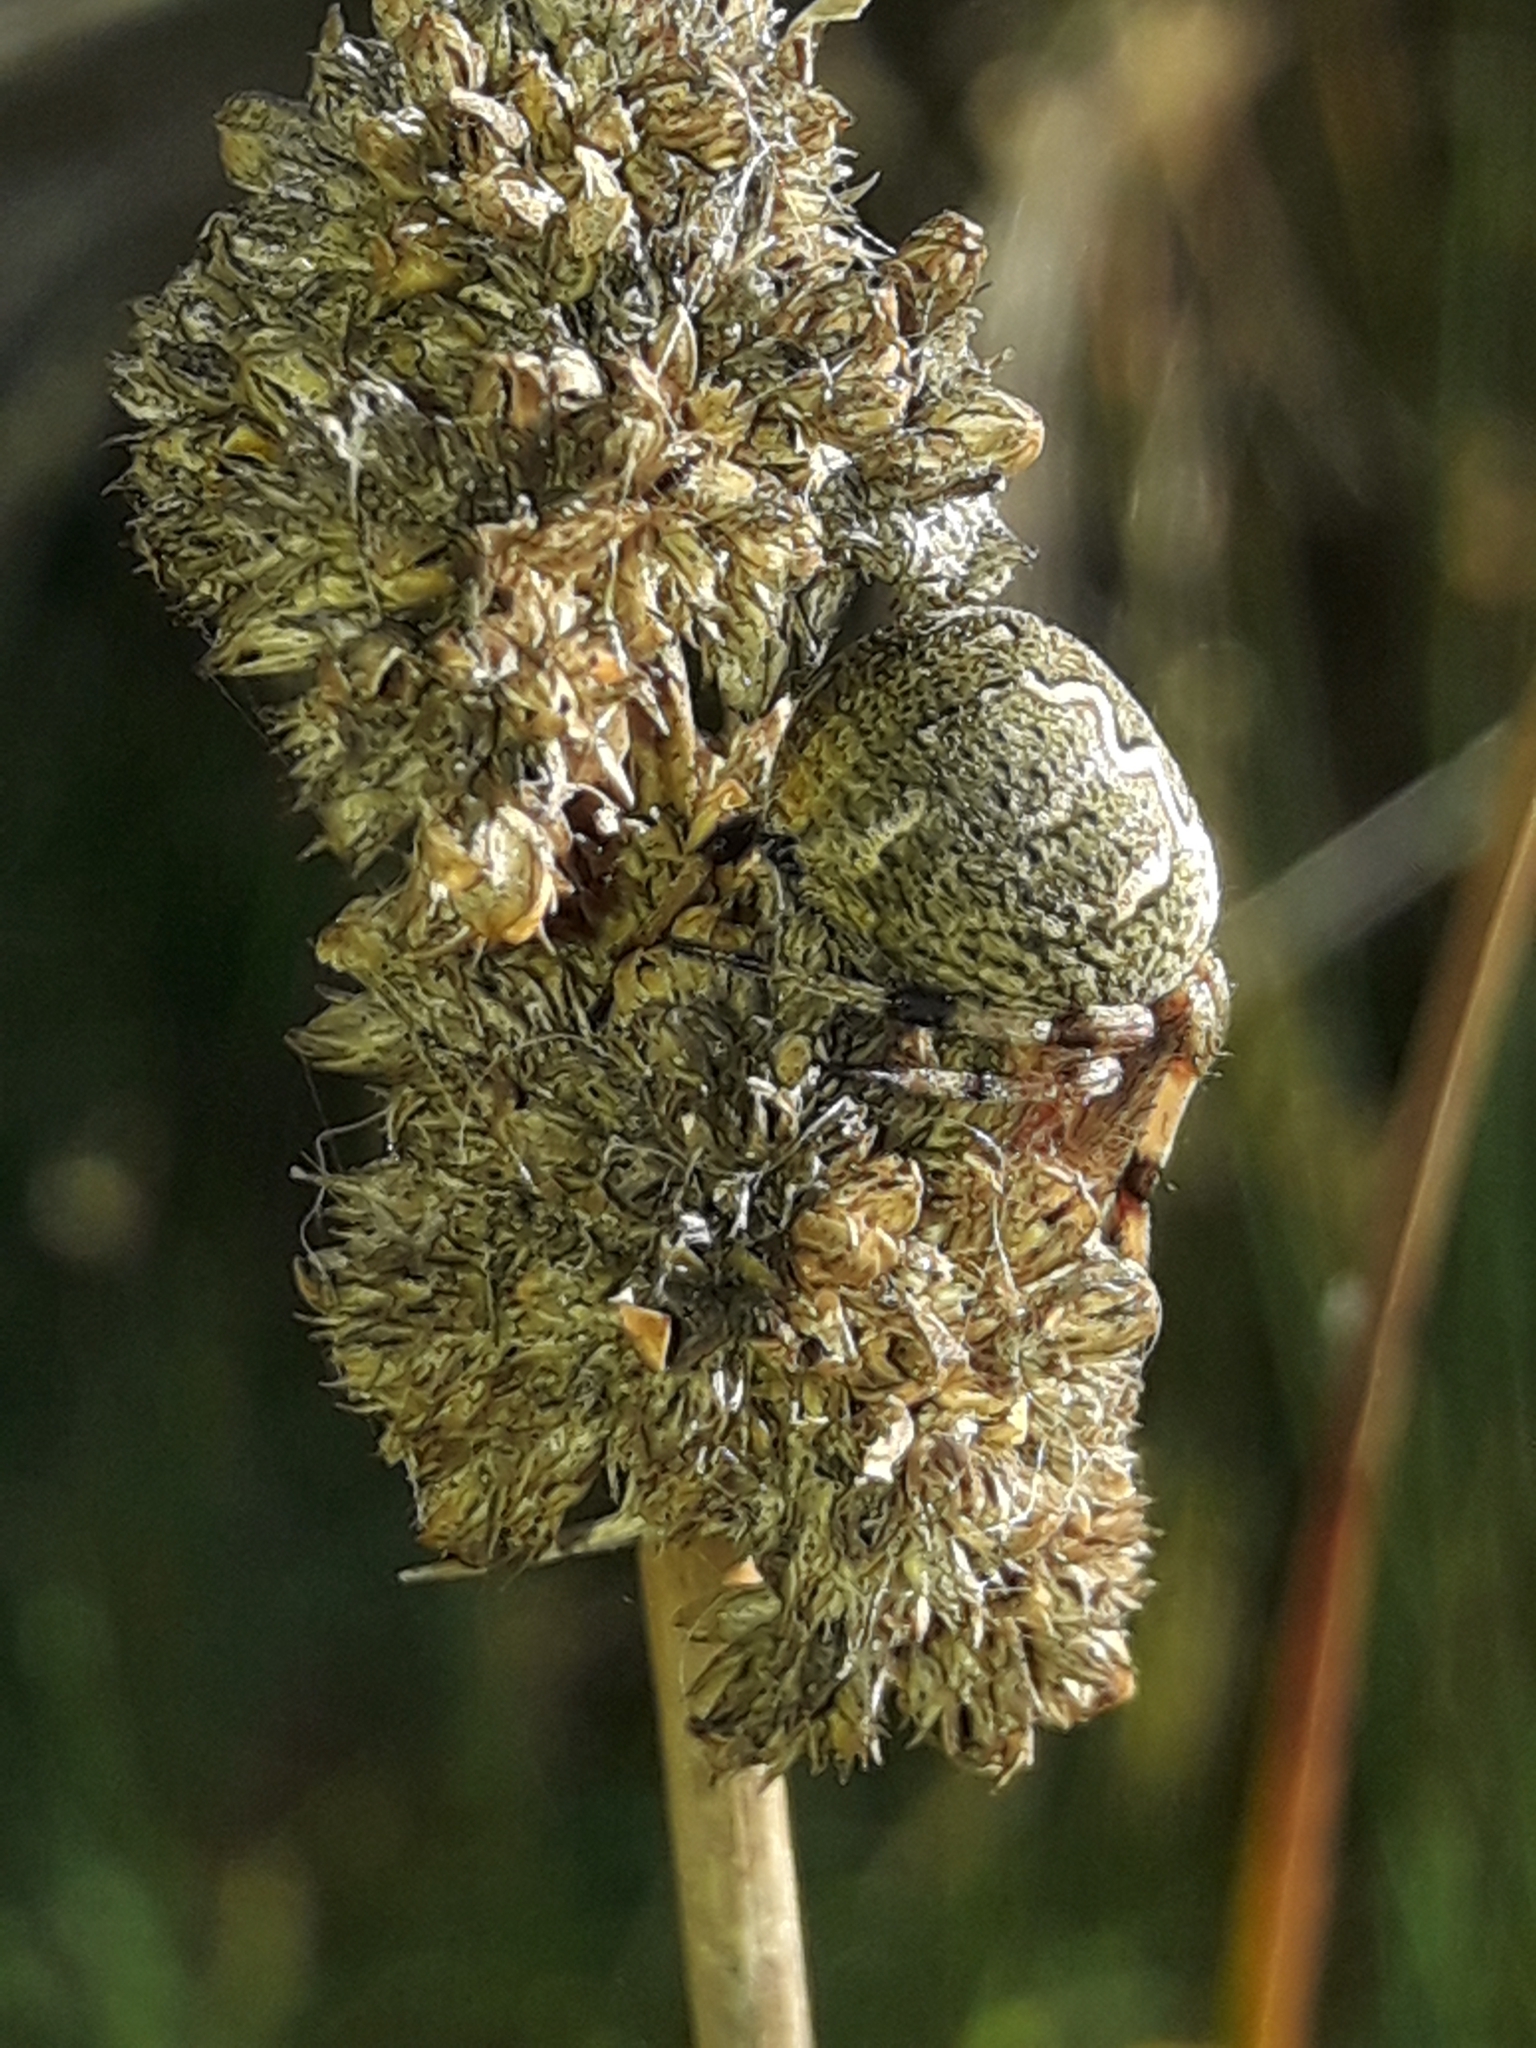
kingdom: Animalia
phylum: Arthropoda
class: Arachnida
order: Araneae
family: Araneidae
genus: Salsa
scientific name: Salsa fuliginata
